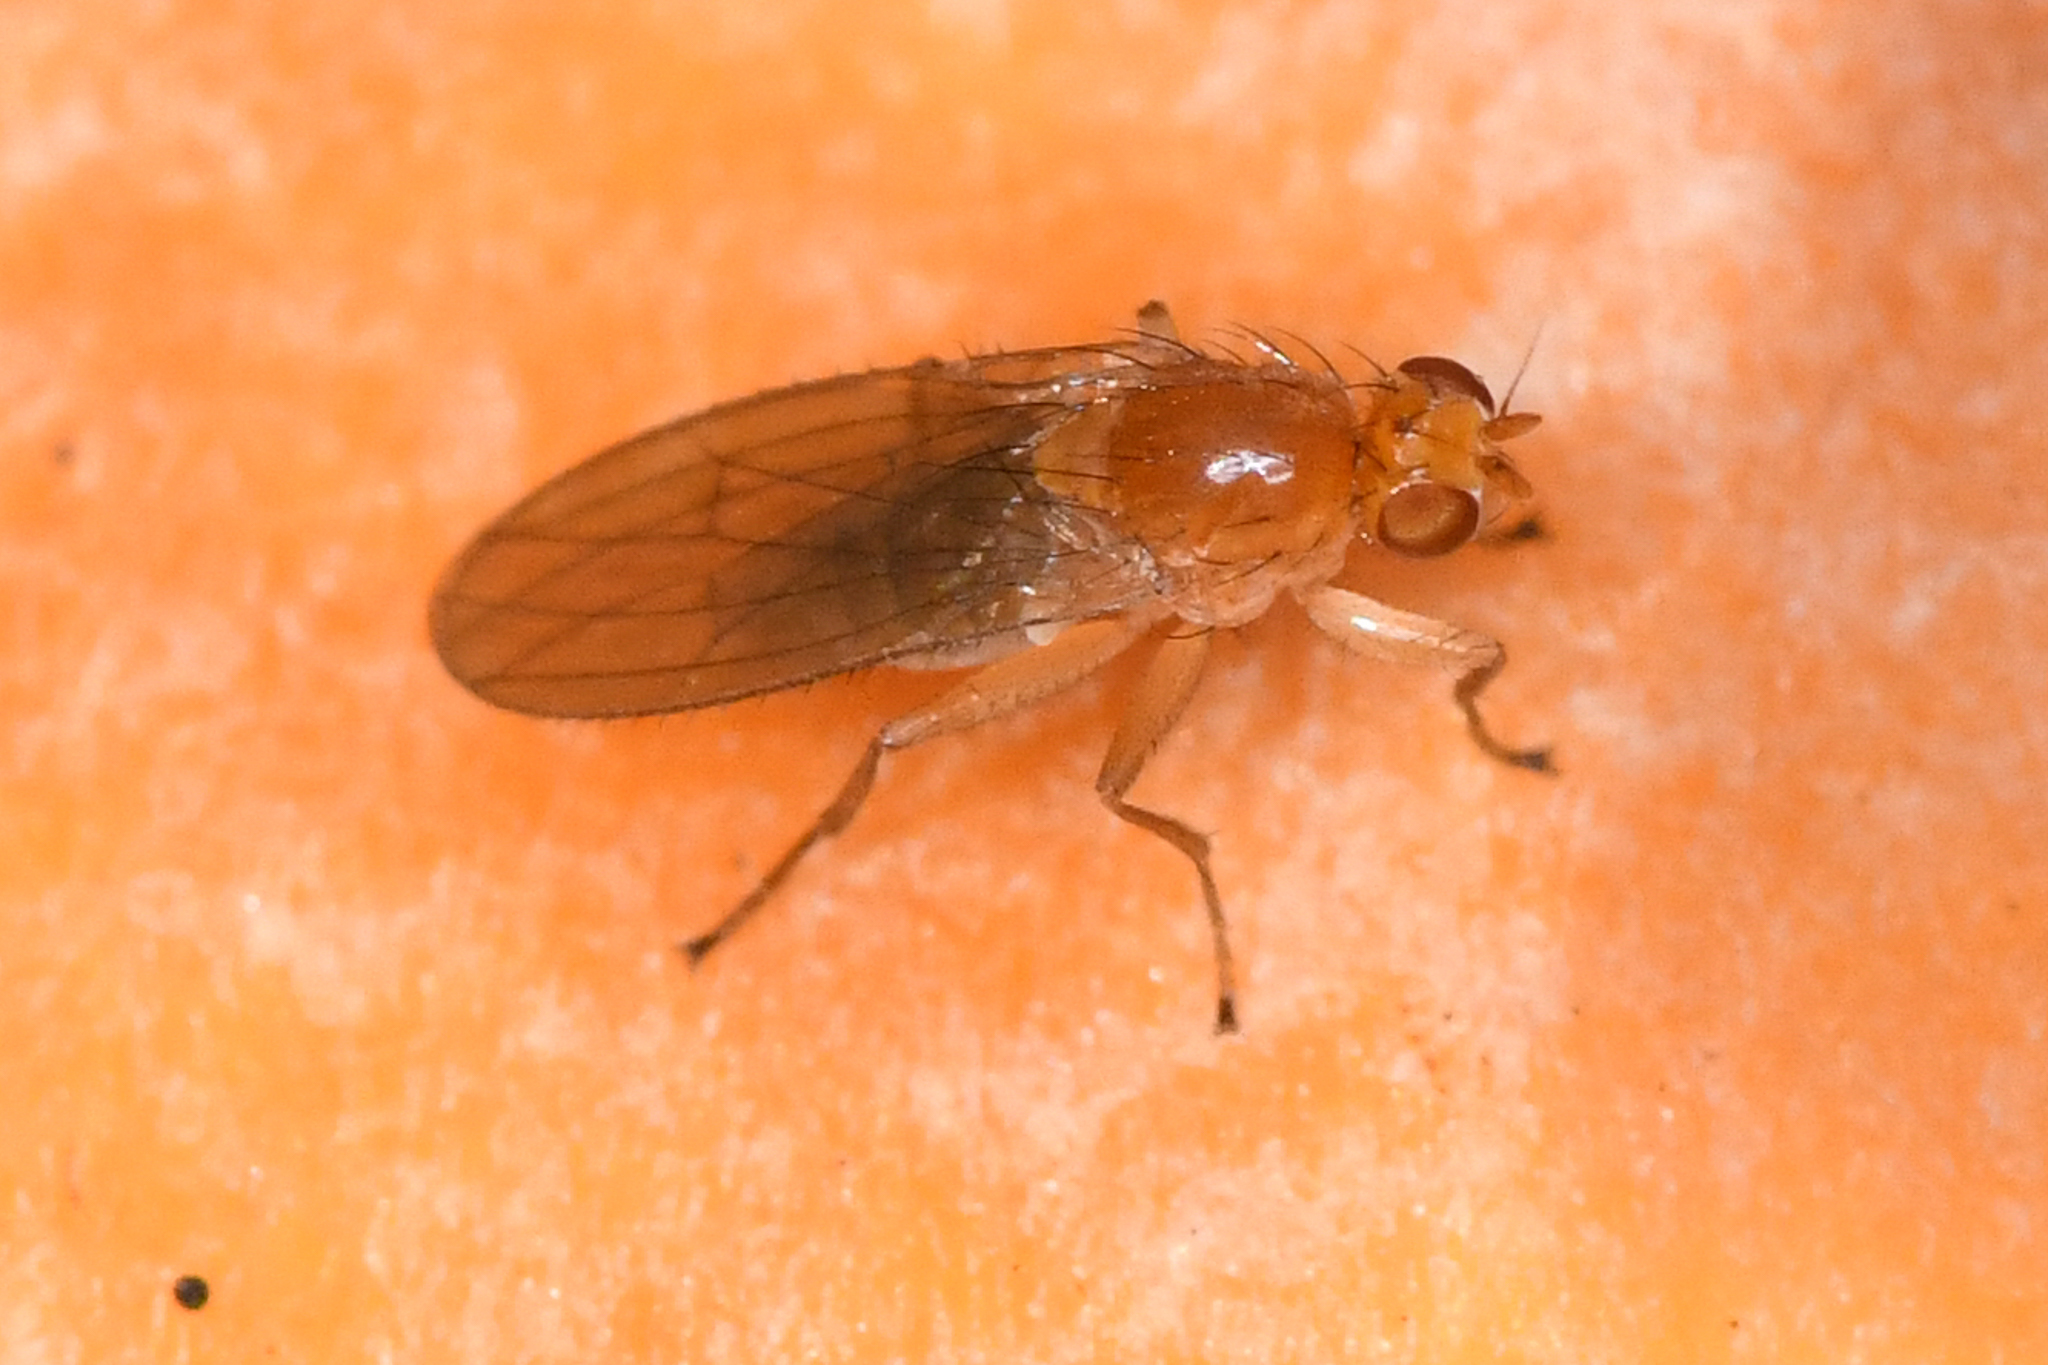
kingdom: Animalia
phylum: Arthropoda
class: Insecta
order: Diptera
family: Heleomyzidae
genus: Allophyla
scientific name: Allophyla laevis
